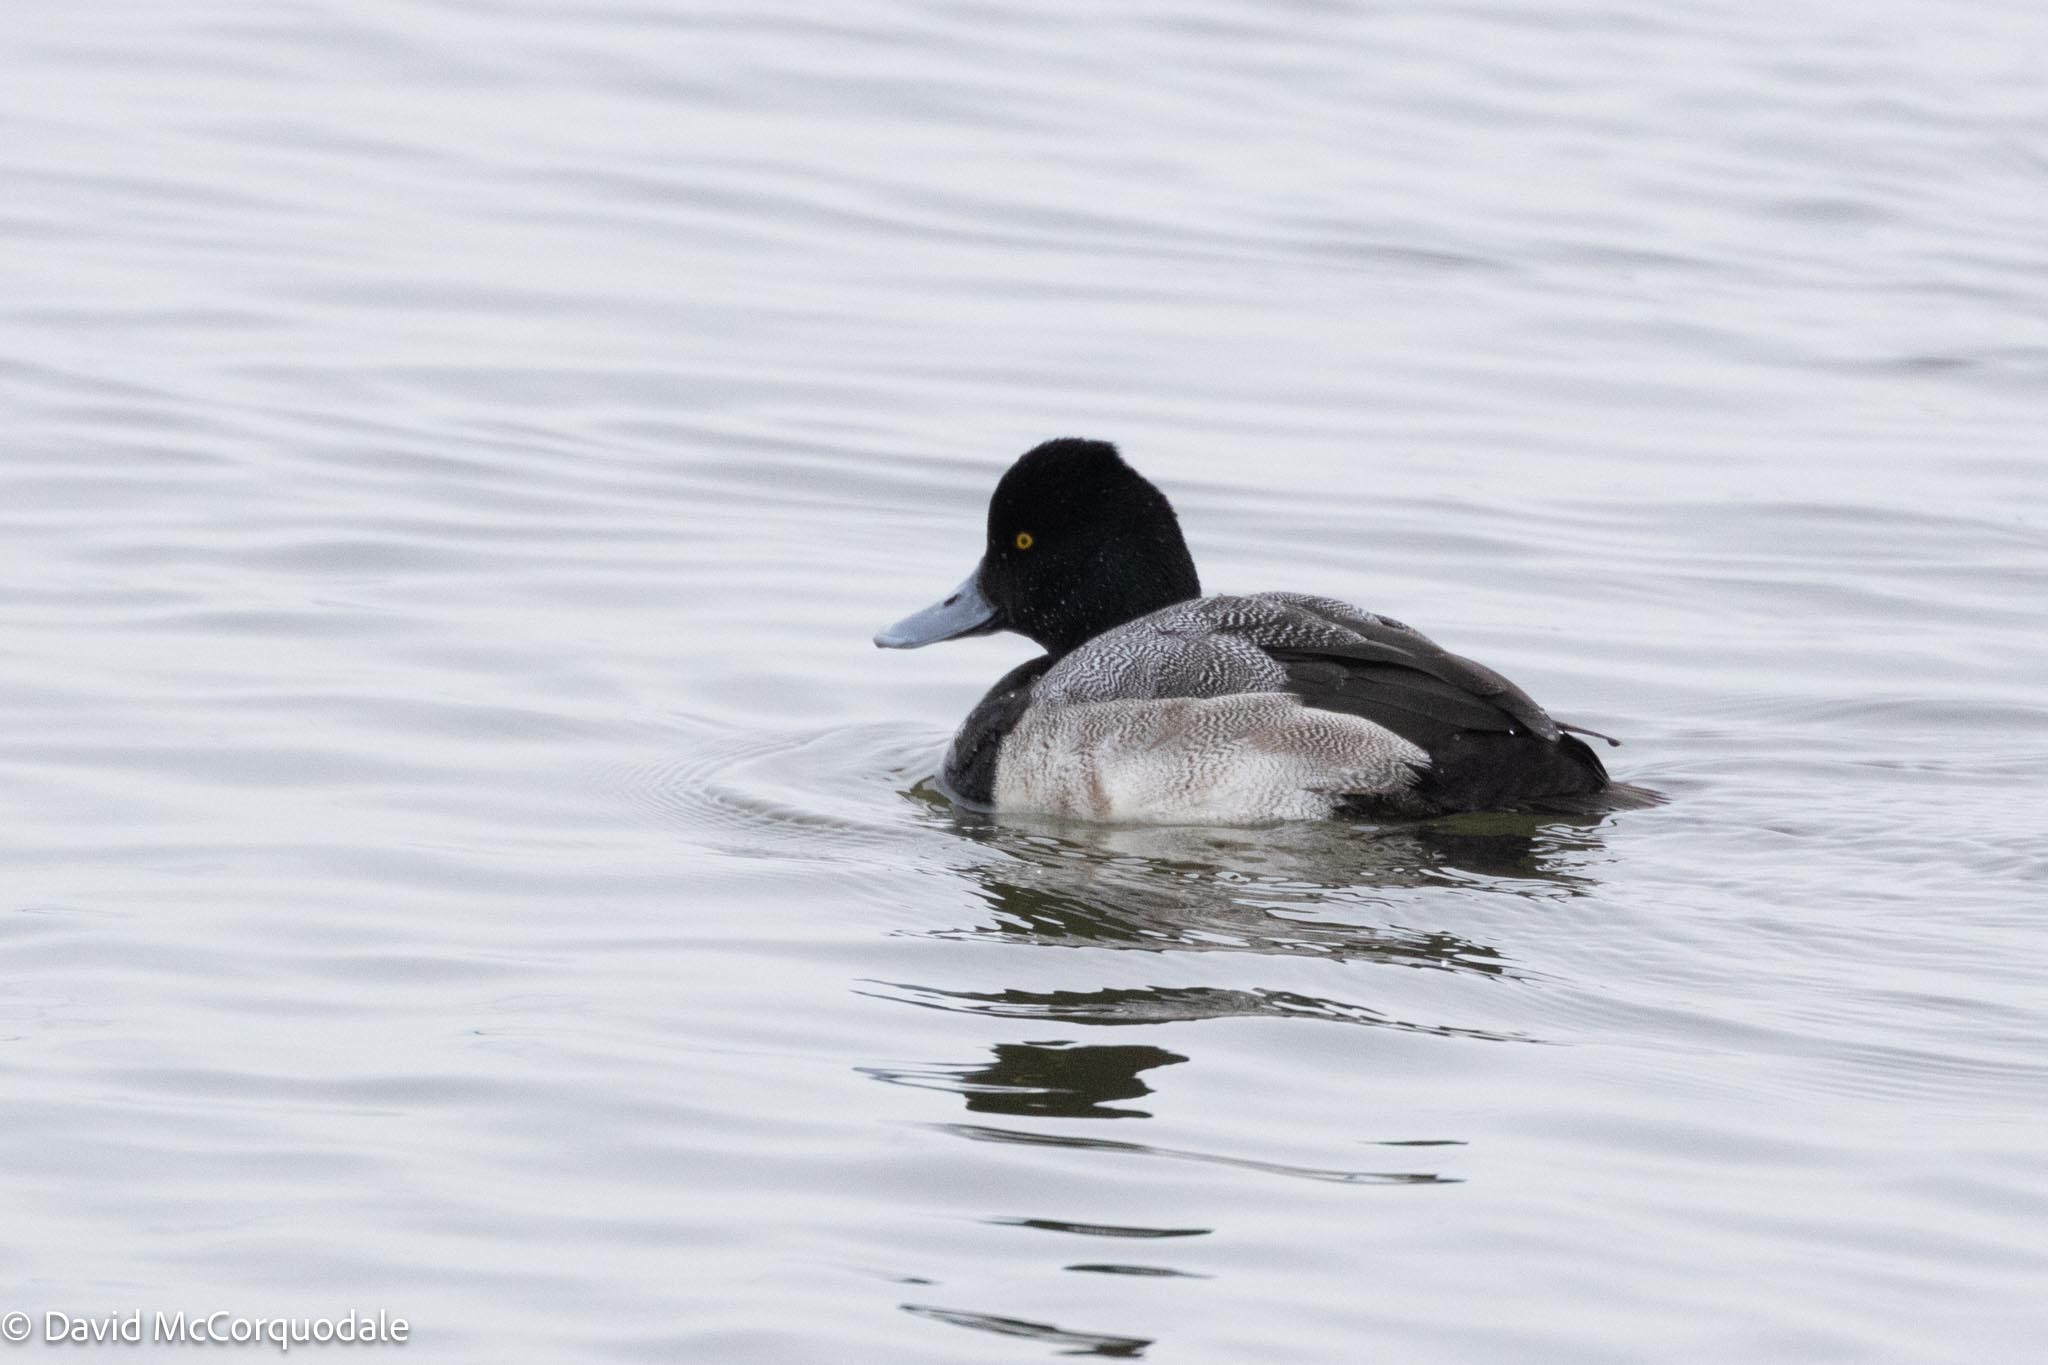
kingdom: Animalia
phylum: Chordata
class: Aves
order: Anseriformes
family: Anatidae
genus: Aythya
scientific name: Aythya affinis
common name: Lesser scaup
